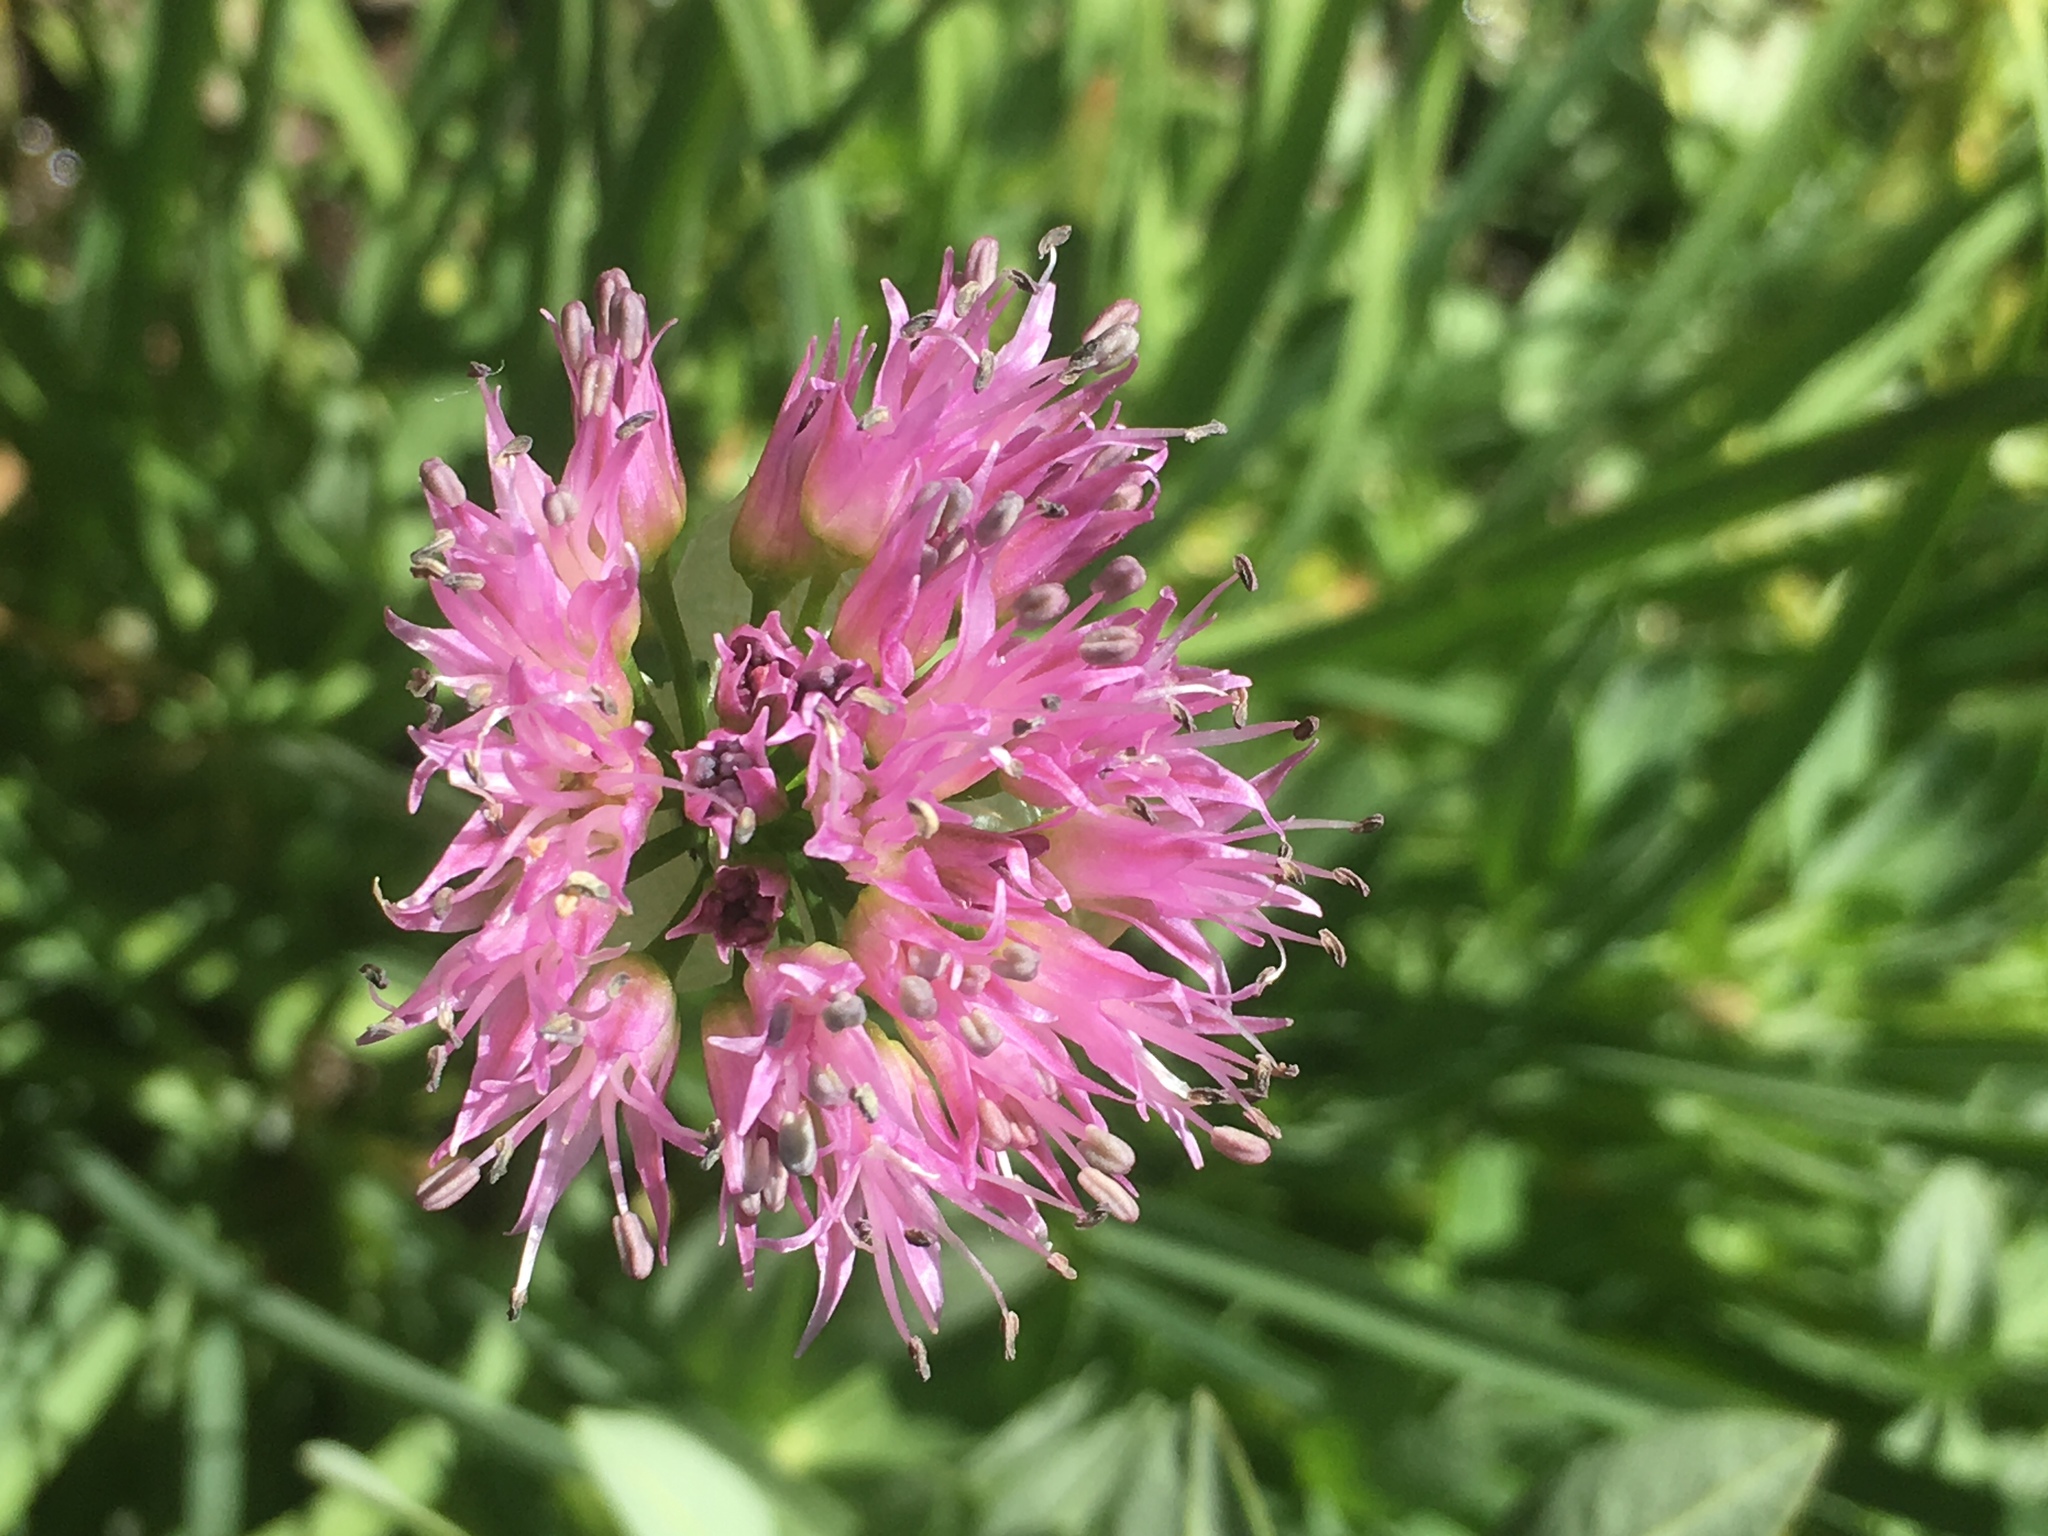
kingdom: Plantae
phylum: Tracheophyta
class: Liliopsida
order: Asparagales
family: Amaryllidaceae
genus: Allium
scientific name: Allium validum
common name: Pacific mountain onion
